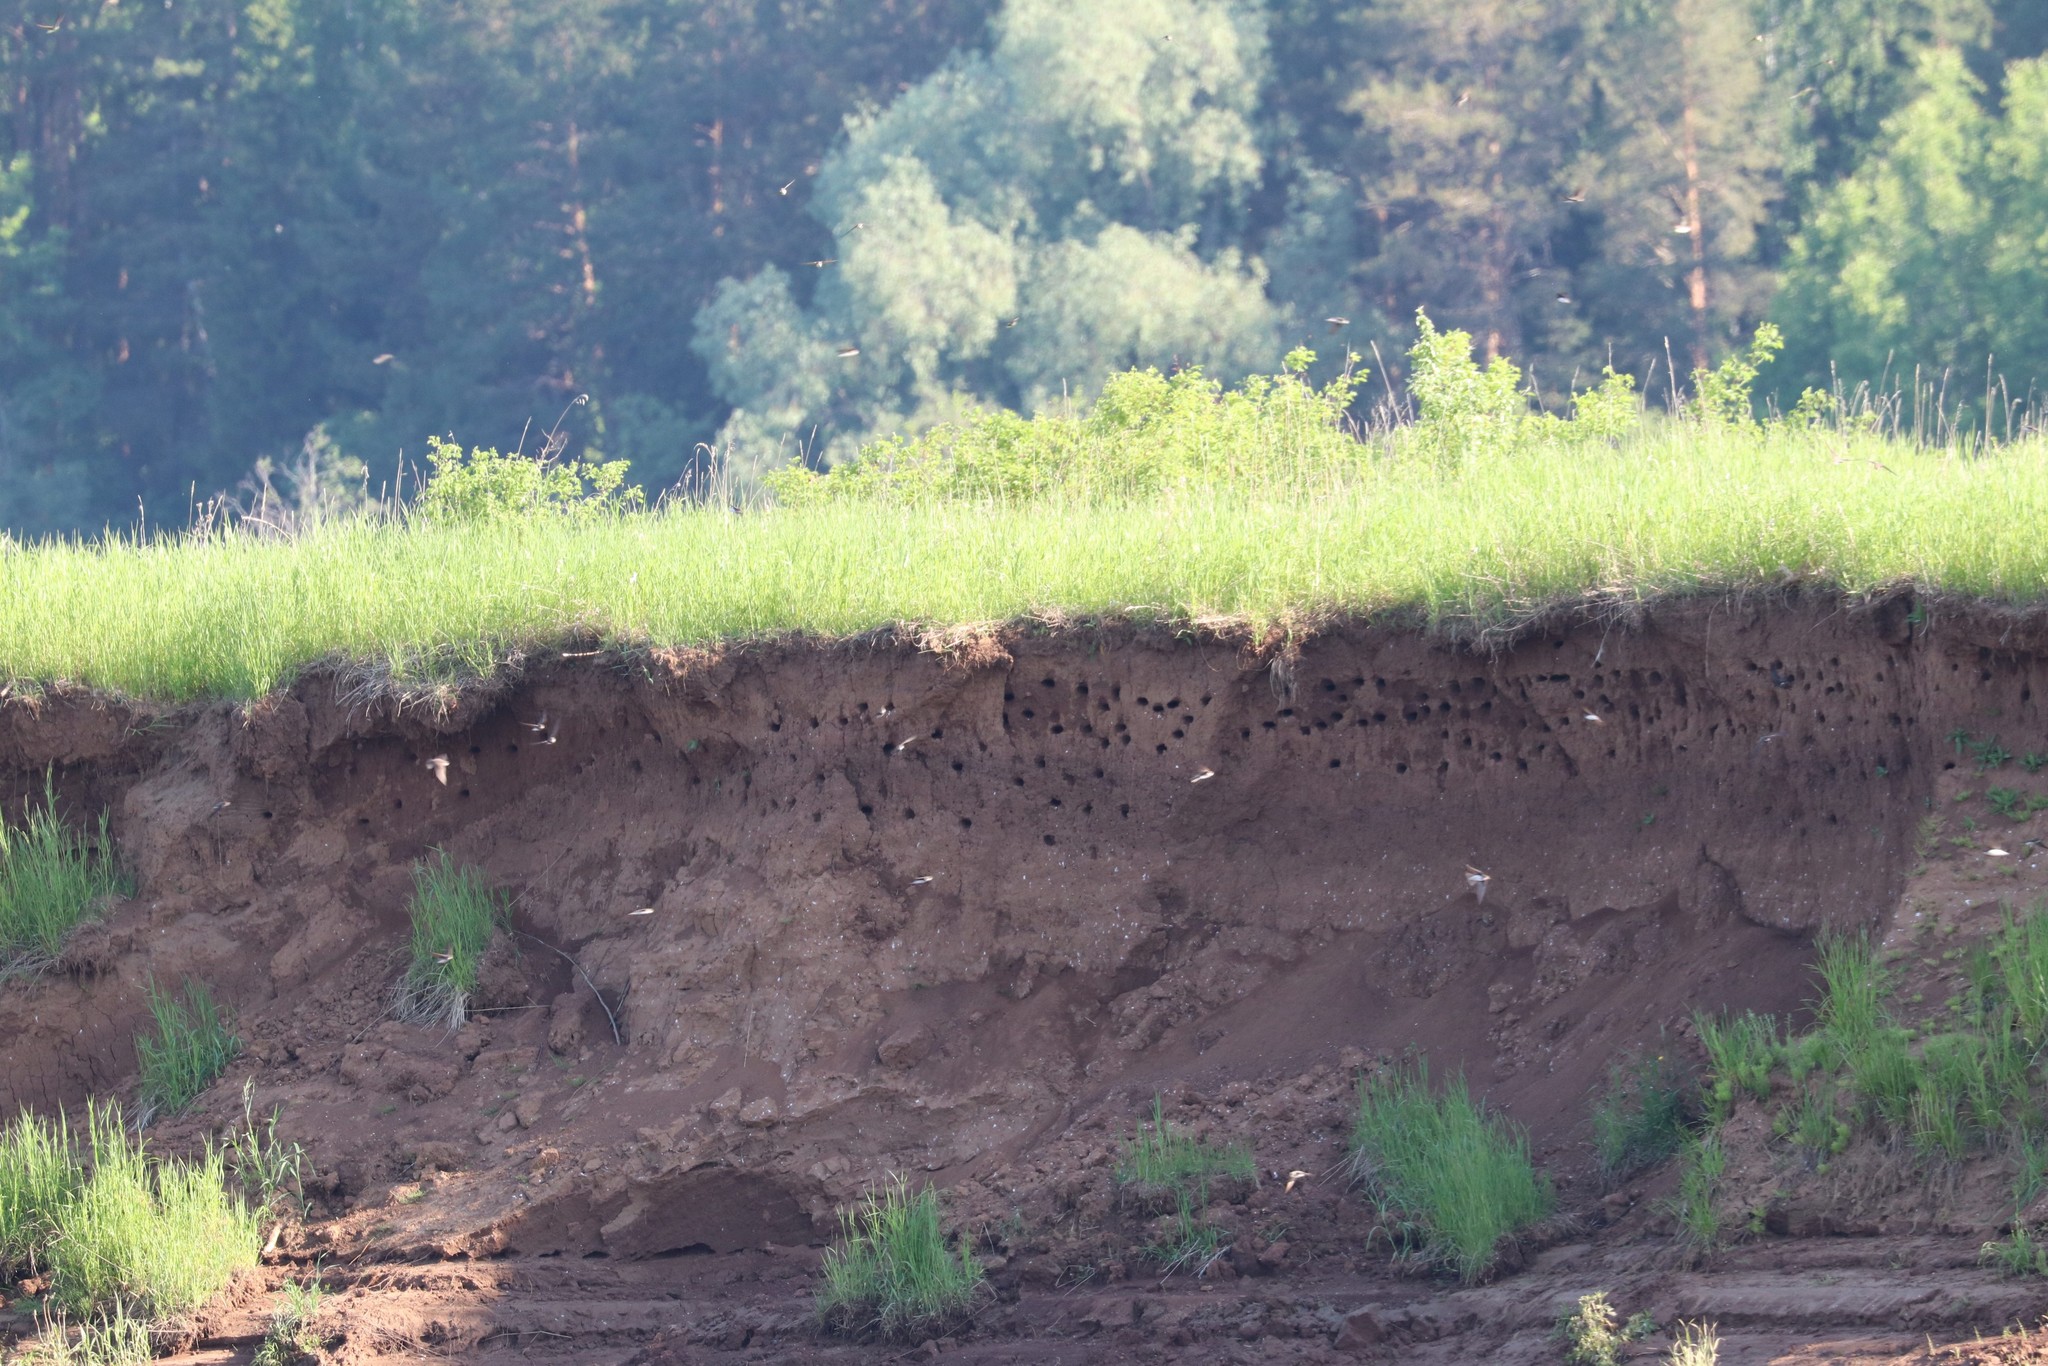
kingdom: Animalia
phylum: Chordata
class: Aves
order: Passeriformes
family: Hirundinidae
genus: Riparia
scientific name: Riparia riparia
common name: Sand martin
